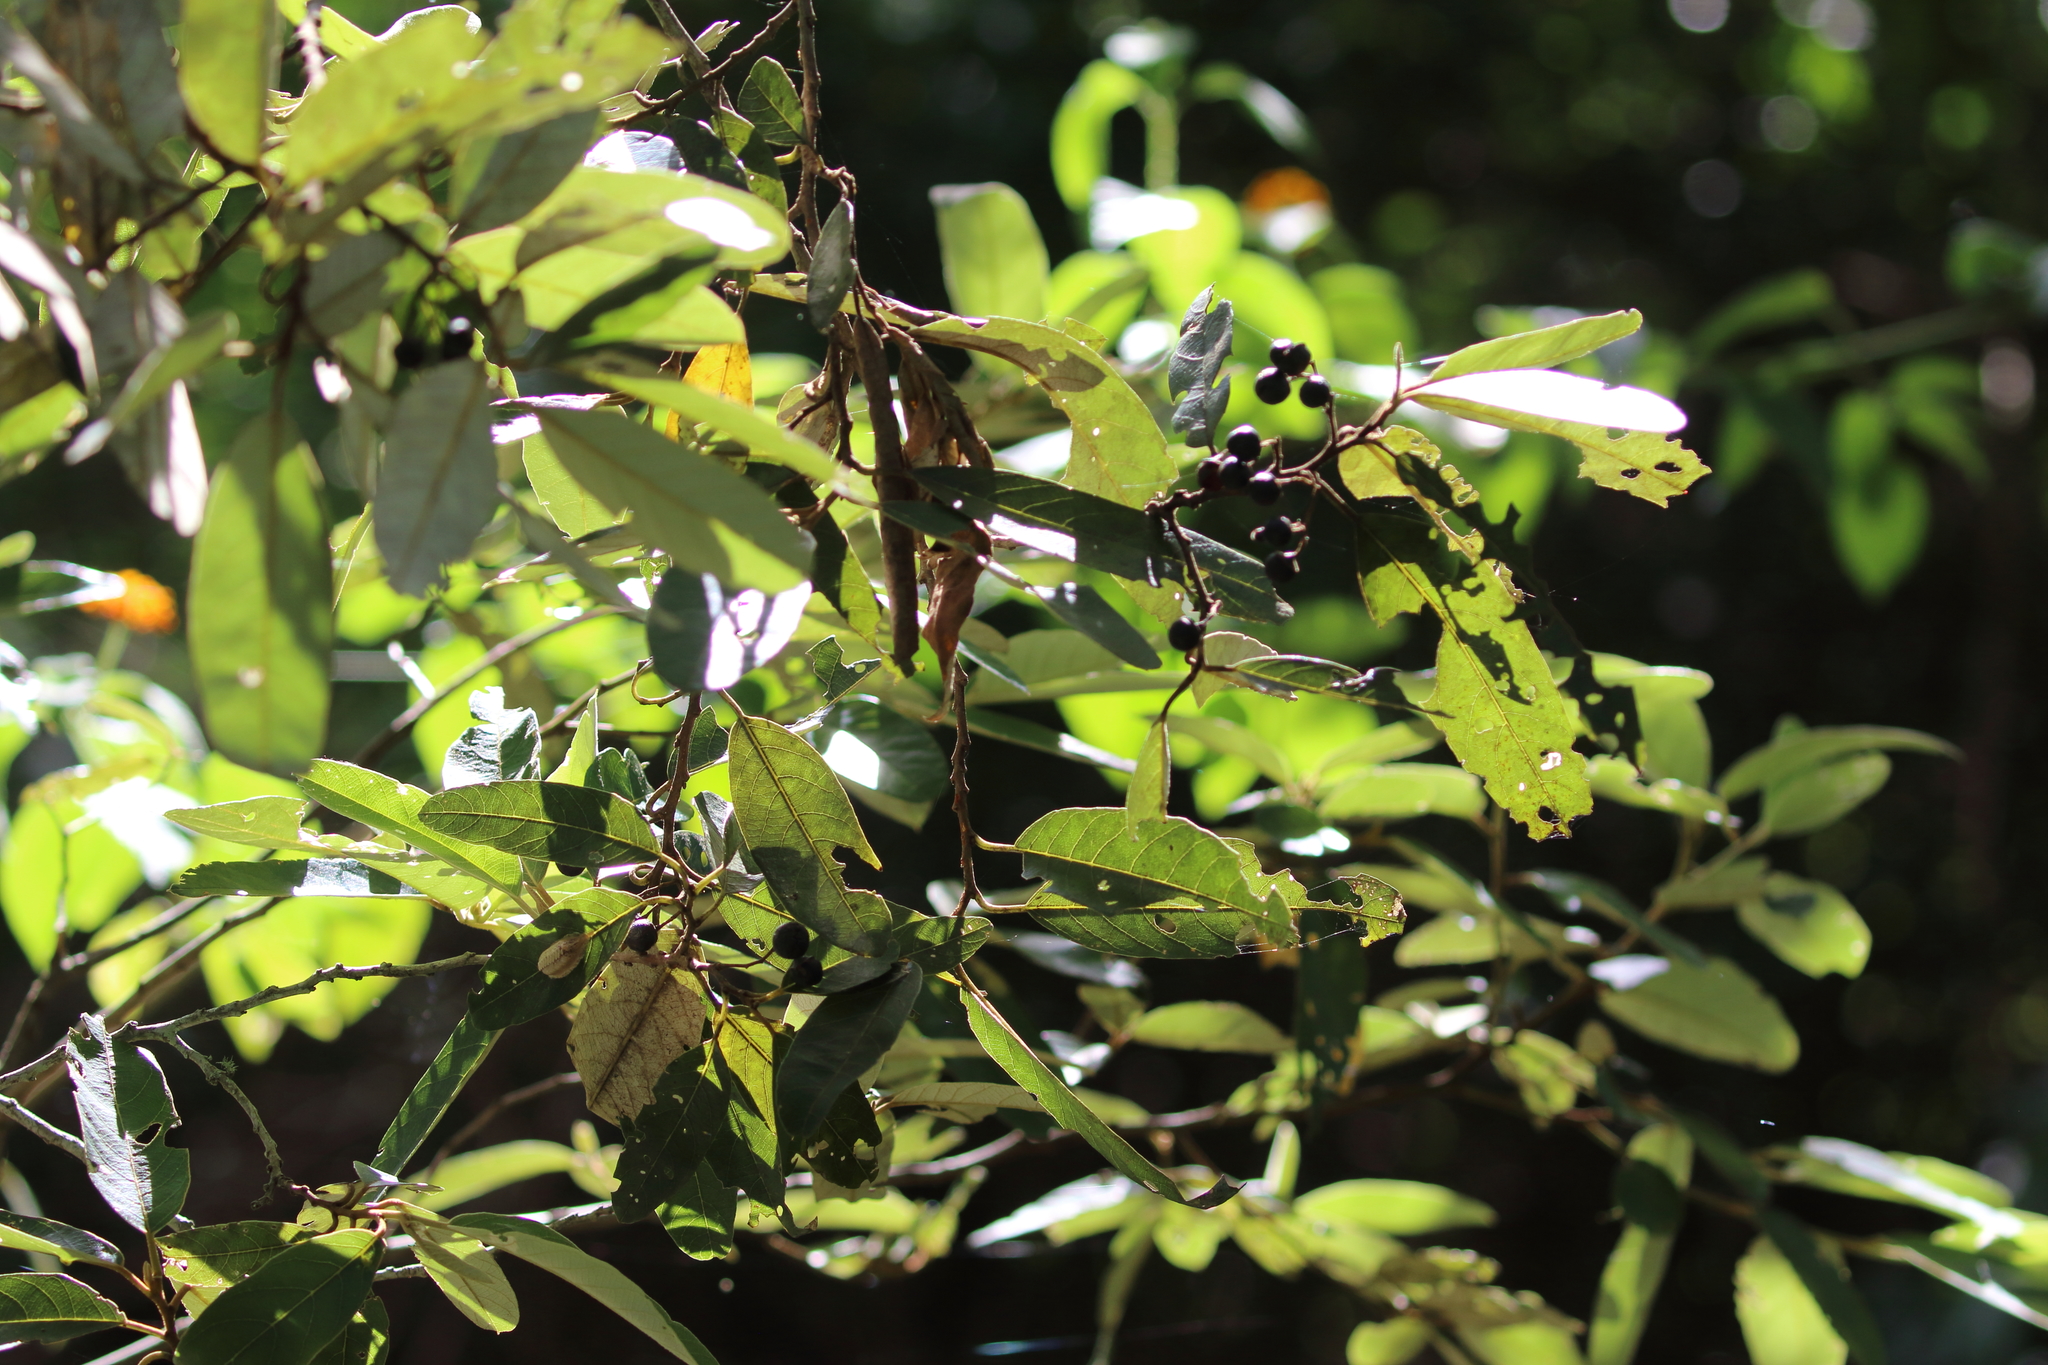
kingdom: Plantae
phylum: Tracheophyta
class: Magnoliopsida
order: Rosales
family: Rhamnaceae
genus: Alphitonia
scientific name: Alphitonia excelsa
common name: Red ash
